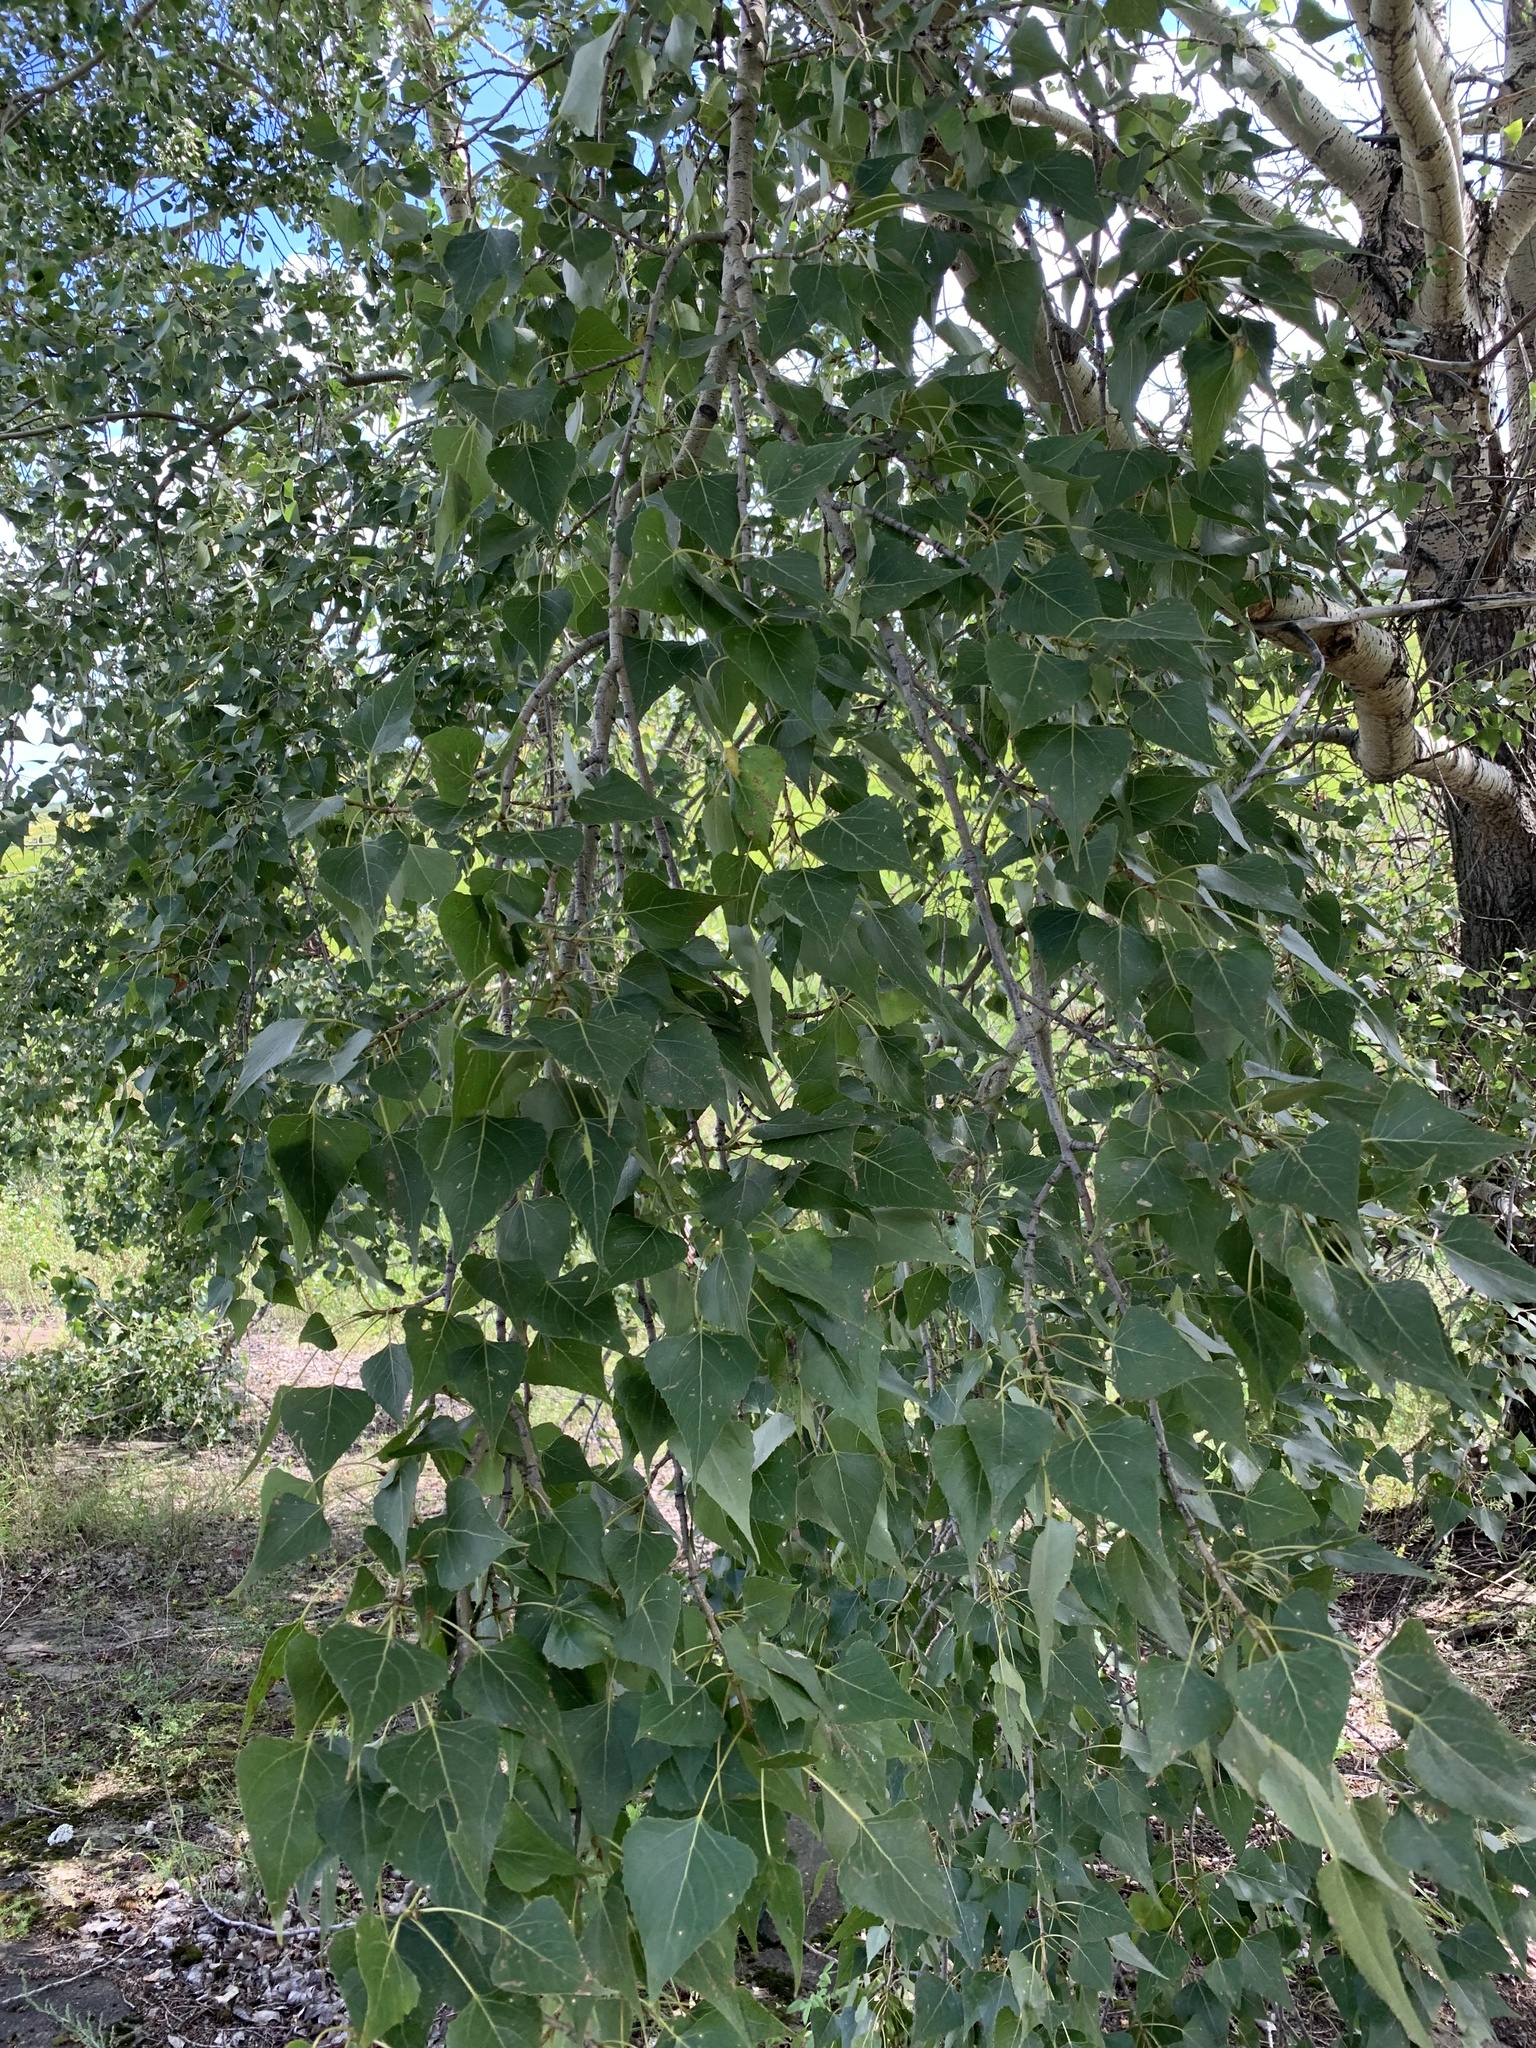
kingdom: Plantae
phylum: Tracheophyta
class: Magnoliopsida
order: Malpighiales
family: Salicaceae
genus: Populus
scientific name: Populus nigra
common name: Black poplar
